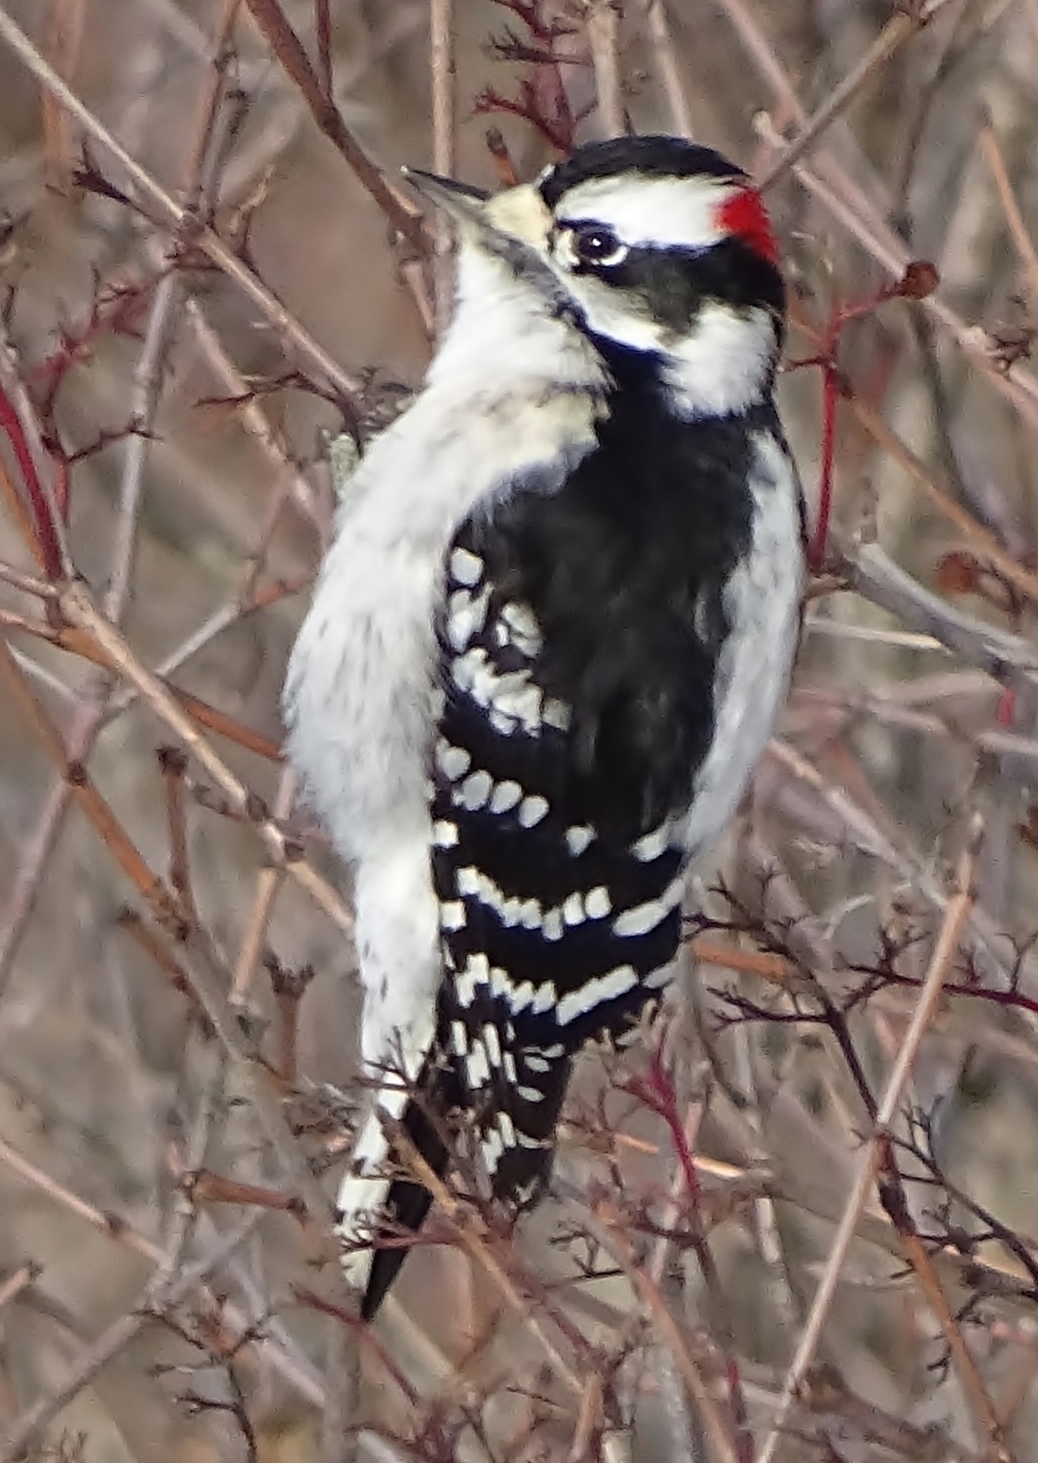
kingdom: Animalia
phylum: Chordata
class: Aves
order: Piciformes
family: Picidae
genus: Dryobates
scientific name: Dryobates pubescens
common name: Downy woodpecker
